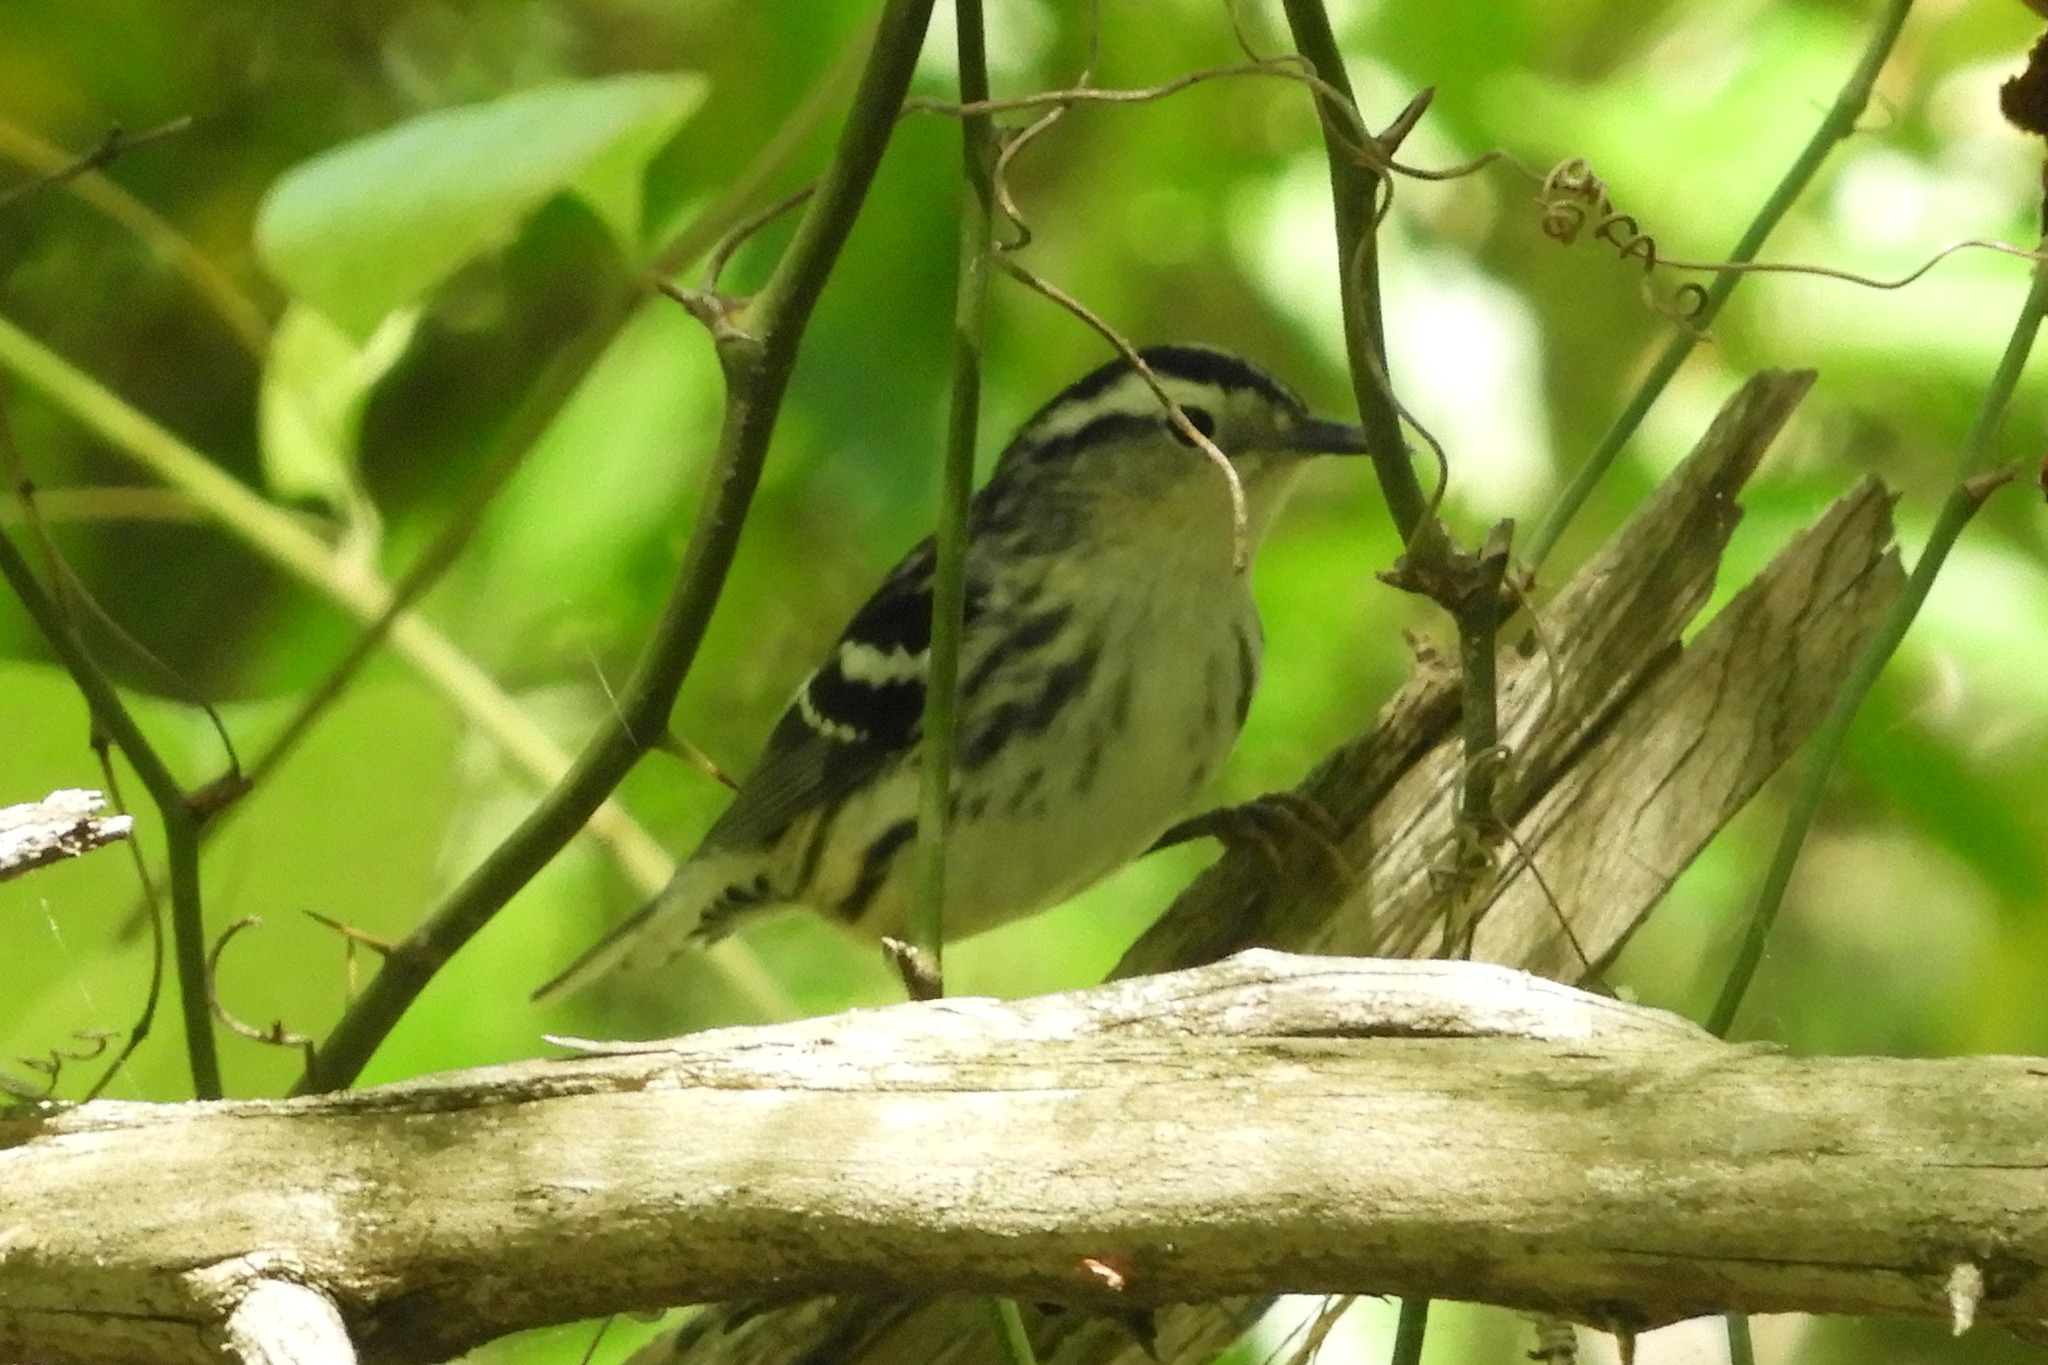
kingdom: Animalia
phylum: Chordata
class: Aves
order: Passeriformes
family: Parulidae
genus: Mniotilta
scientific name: Mniotilta varia
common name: Black-and-white warbler
